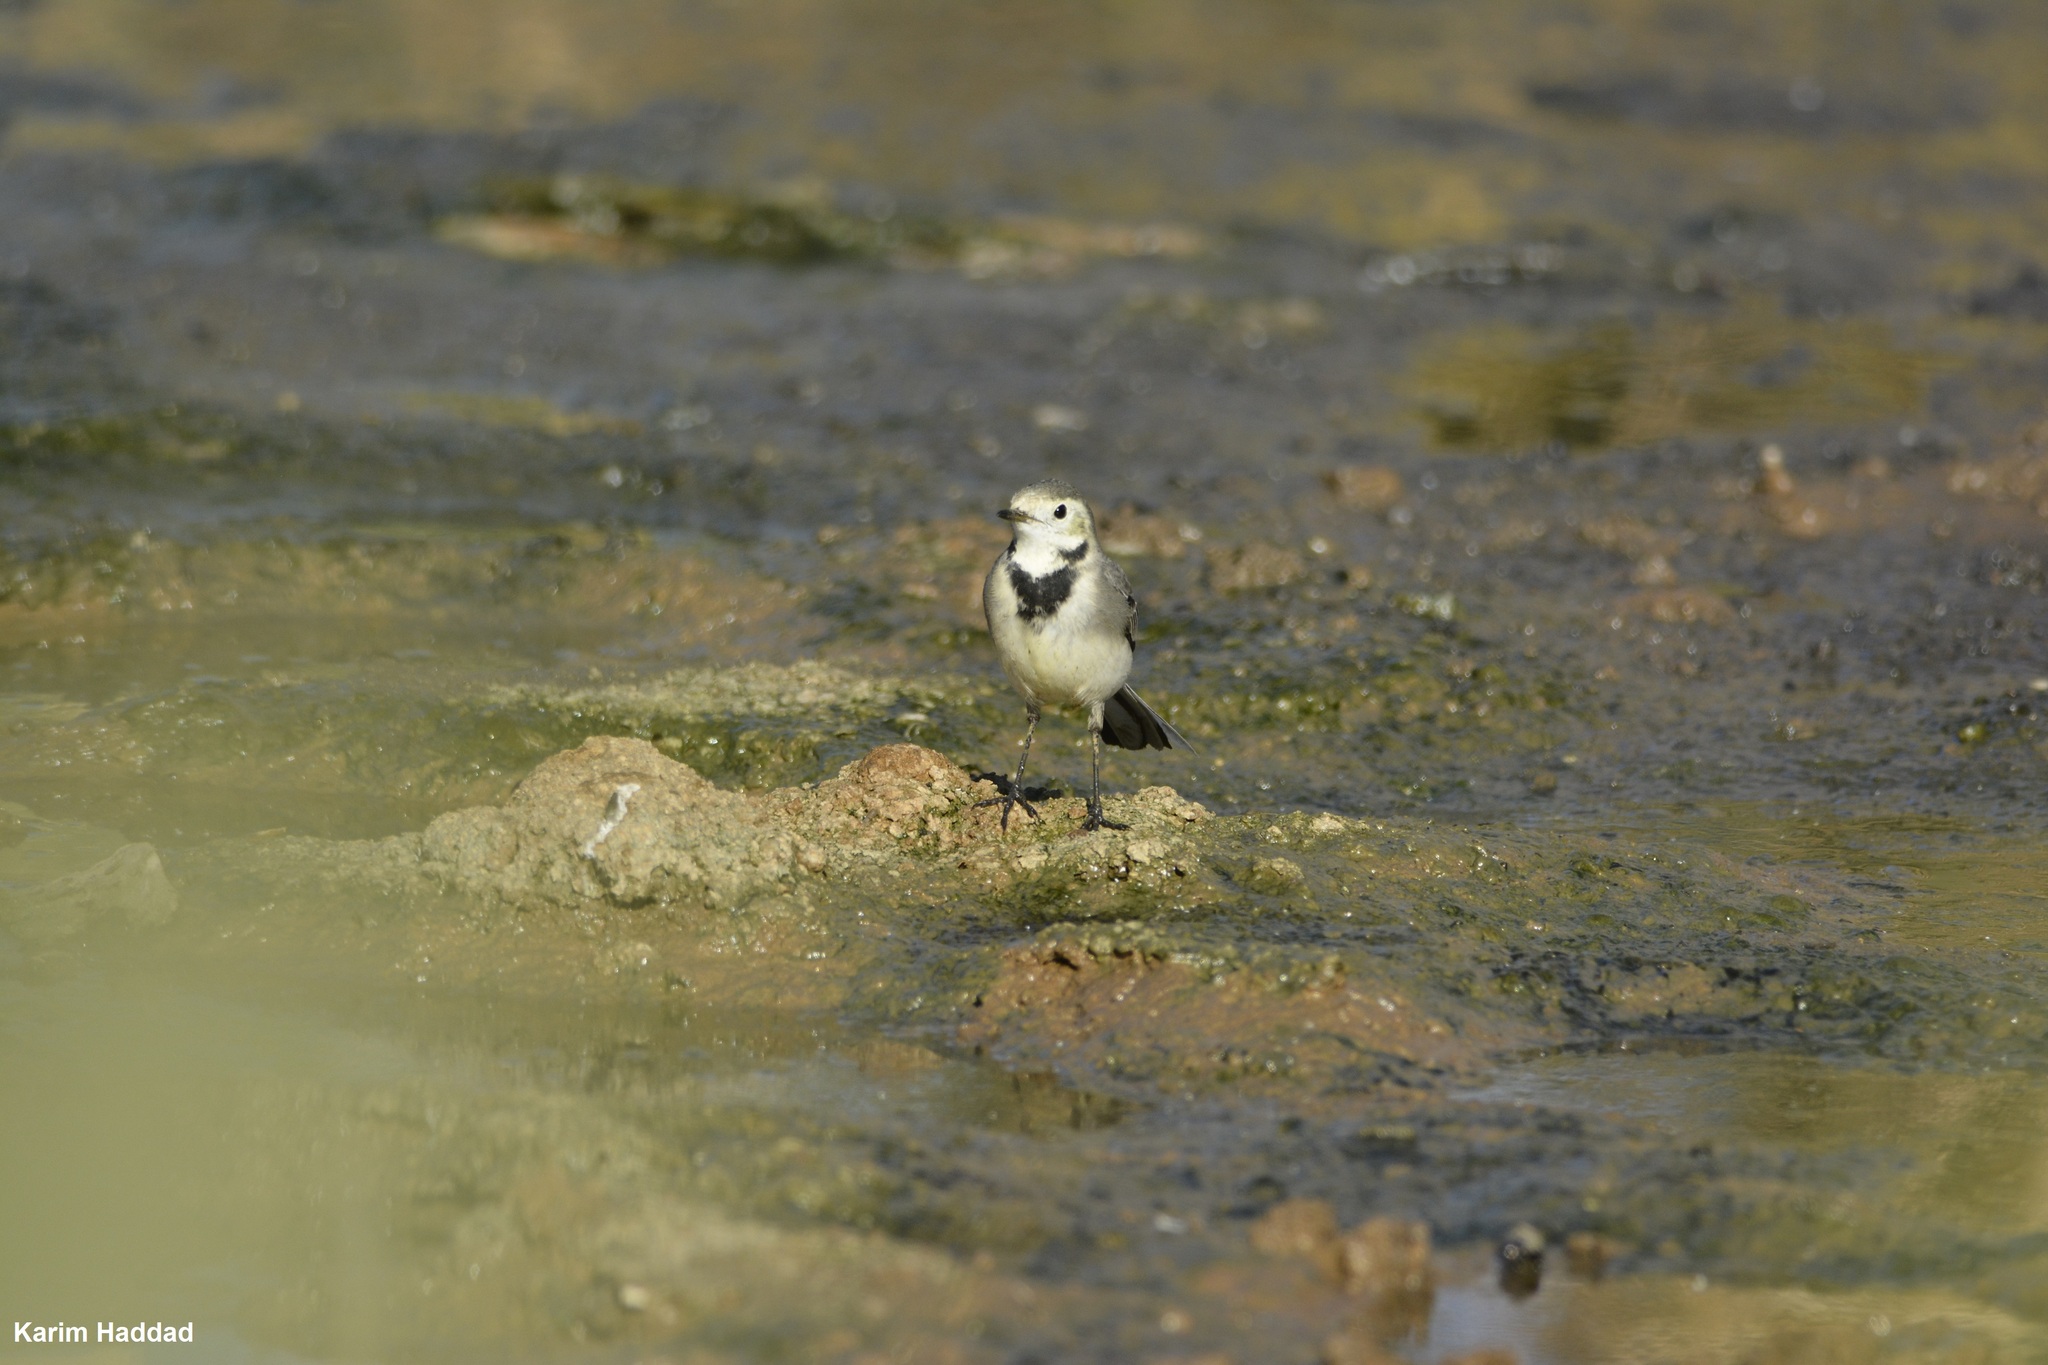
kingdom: Animalia
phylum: Chordata
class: Aves
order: Passeriformes
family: Motacillidae
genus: Motacilla
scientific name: Motacilla alba
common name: White wagtail
